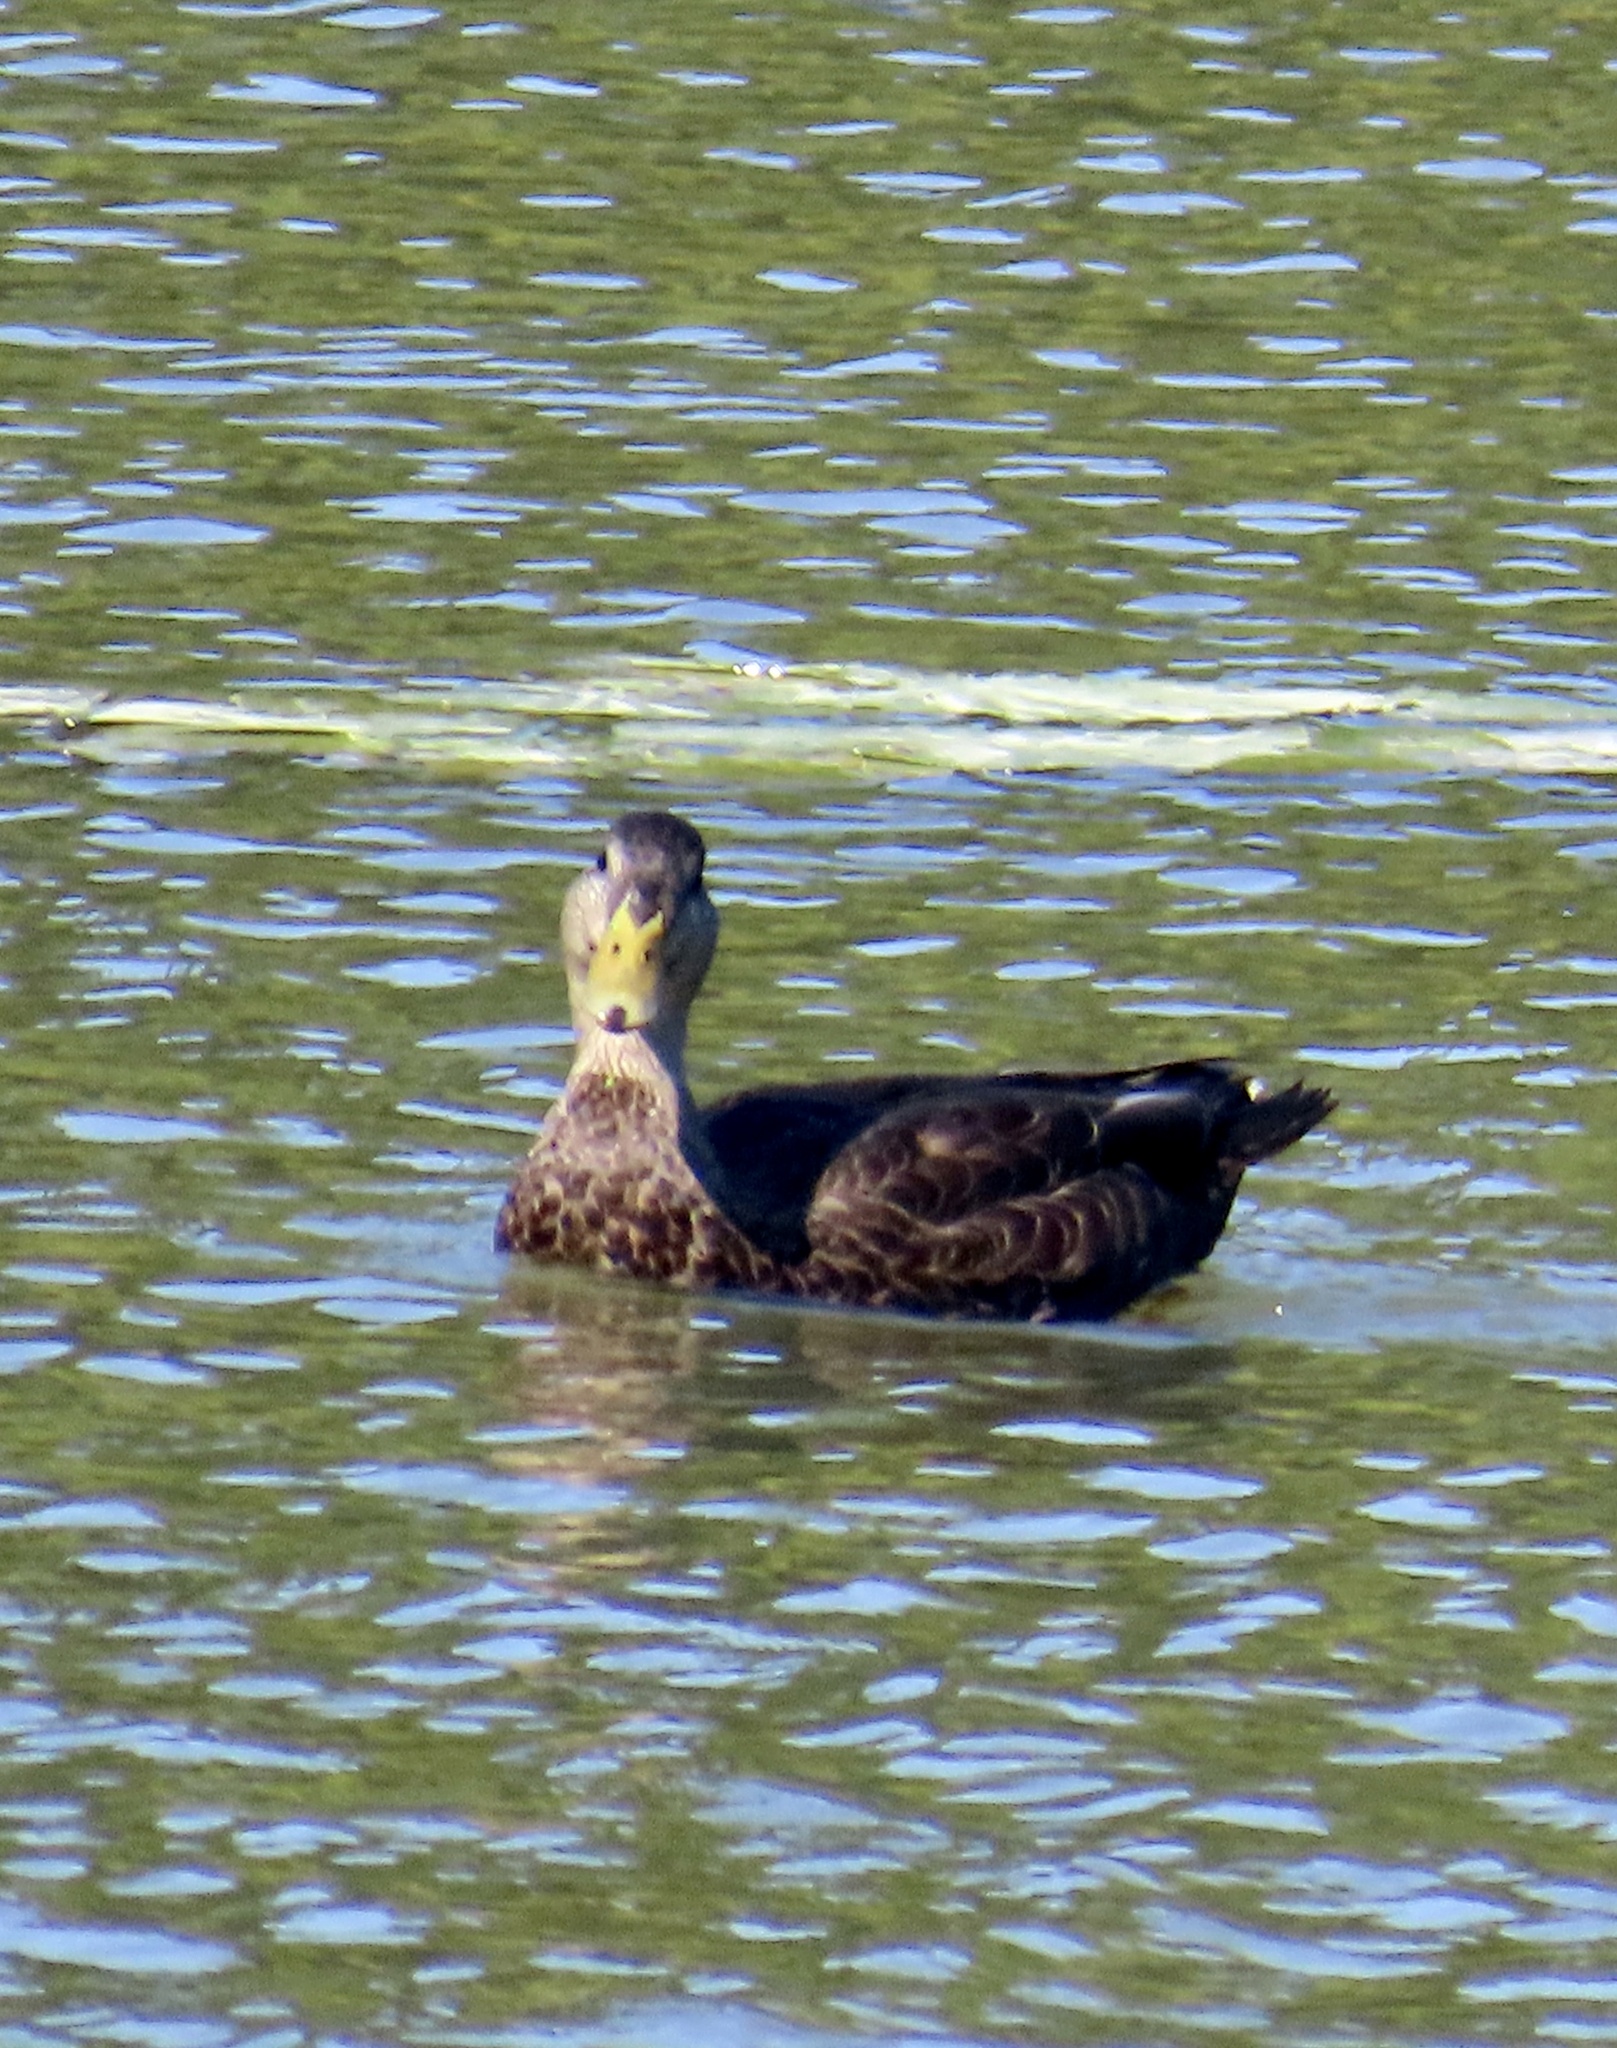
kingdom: Animalia
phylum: Chordata
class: Aves
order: Anseriformes
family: Anatidae
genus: Anas
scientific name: Anas rubripes
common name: American black duck
